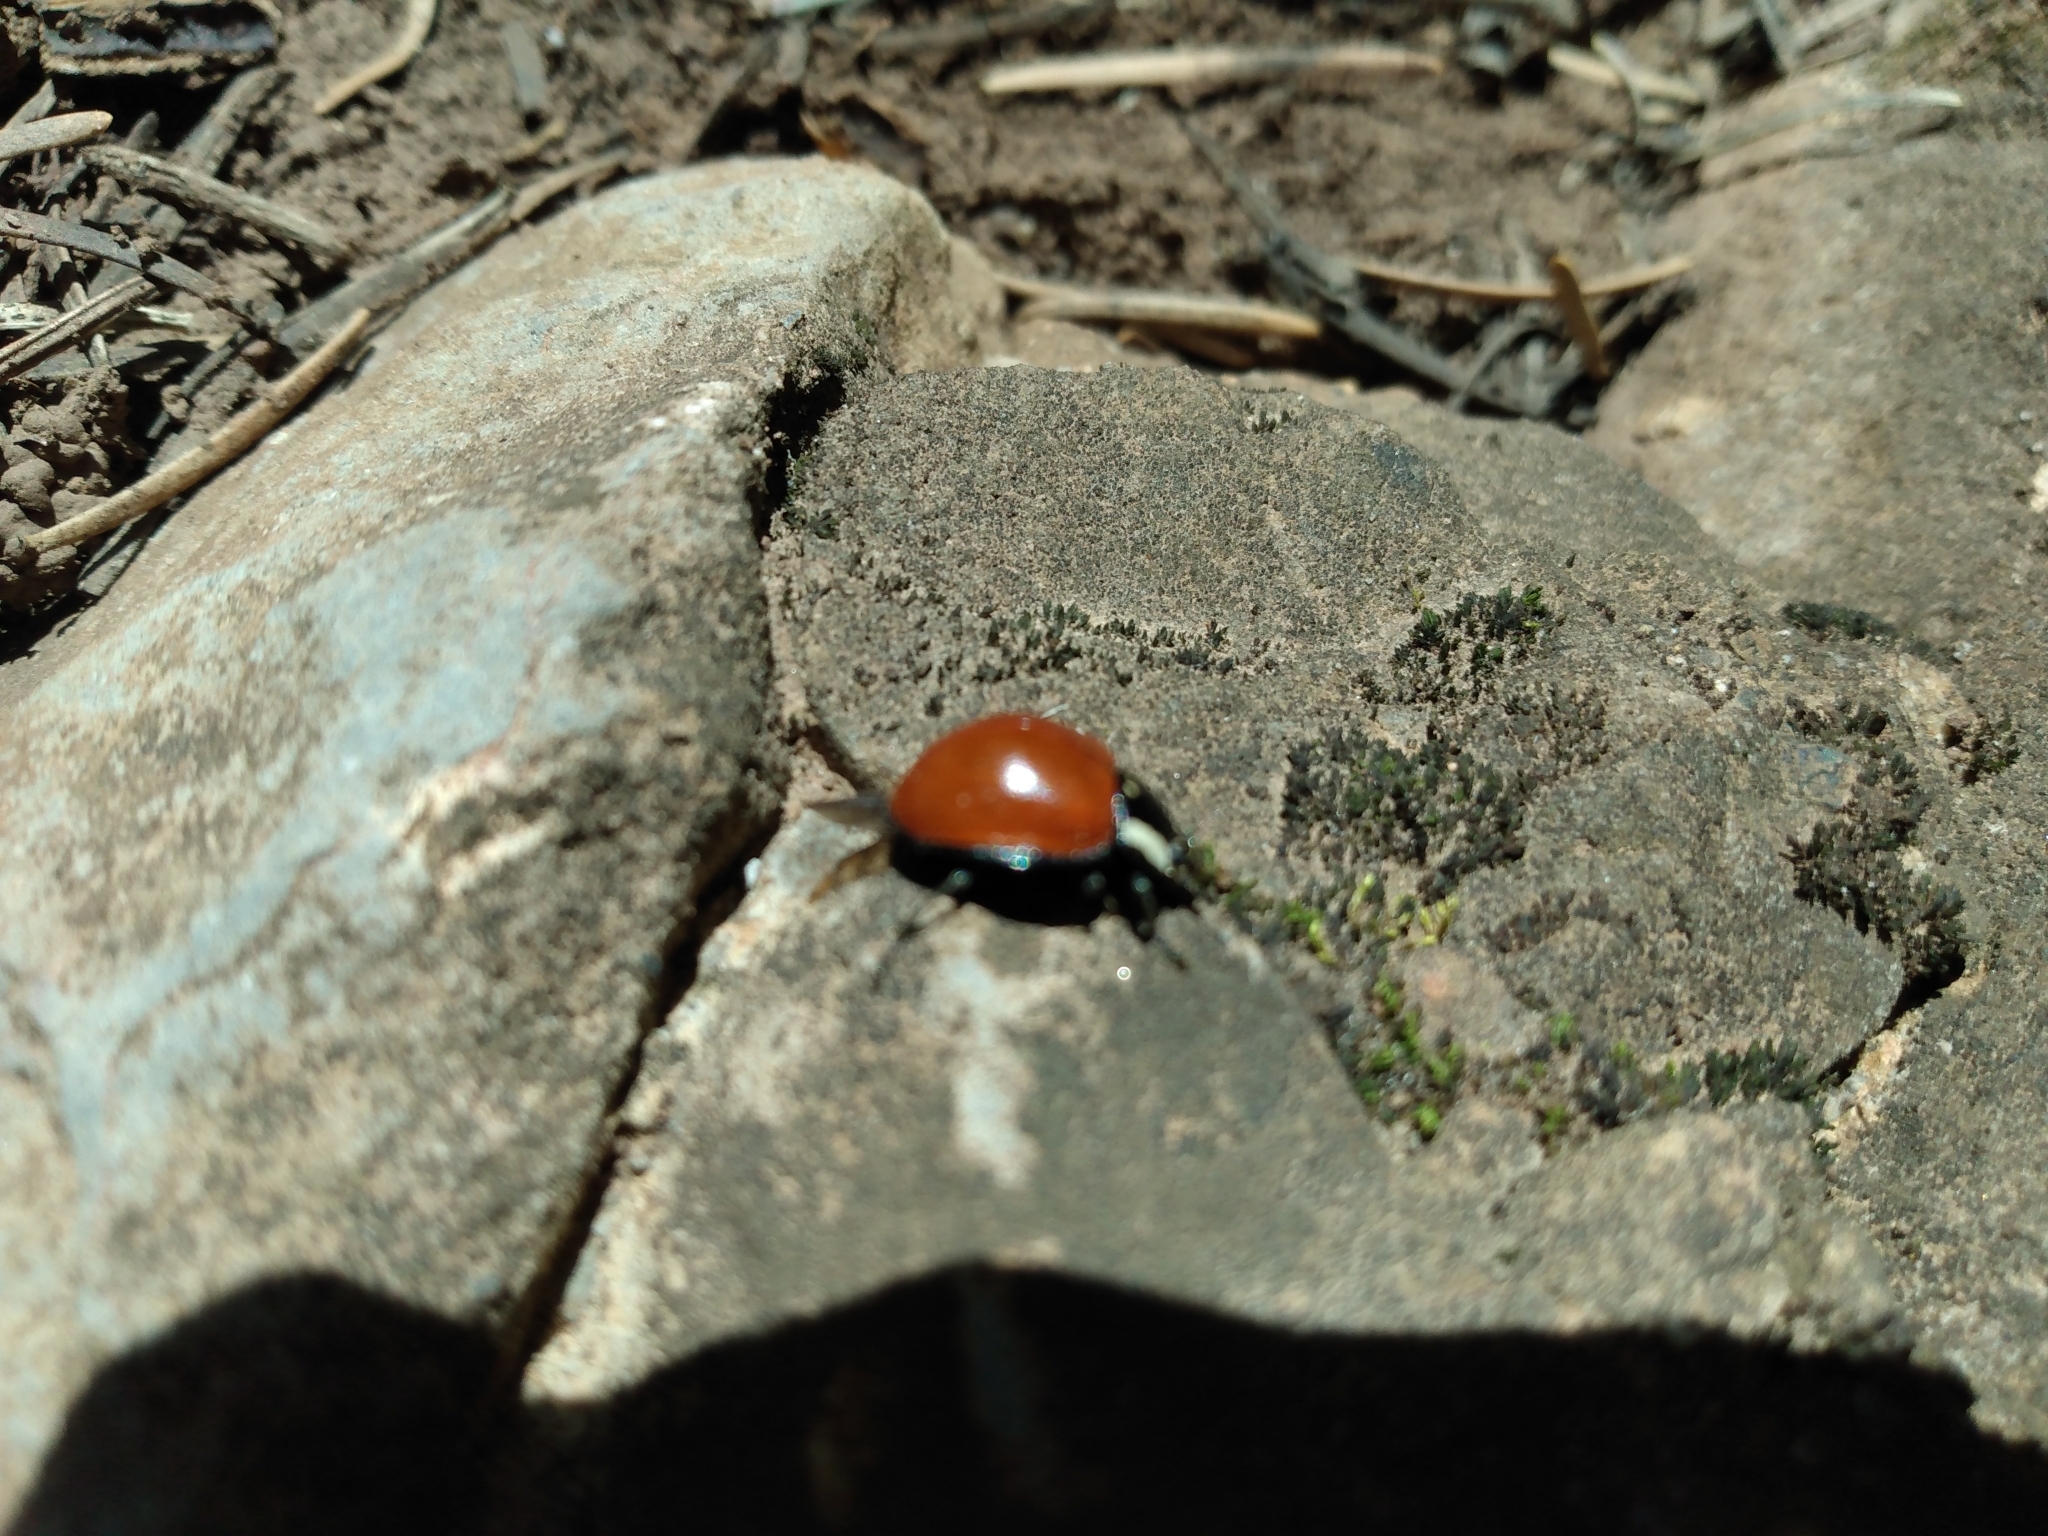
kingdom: Animalia
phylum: Arthropoda
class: Insecta
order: Coleoptera
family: Coccinellidae
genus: Anatis
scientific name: Anatis lecontei
